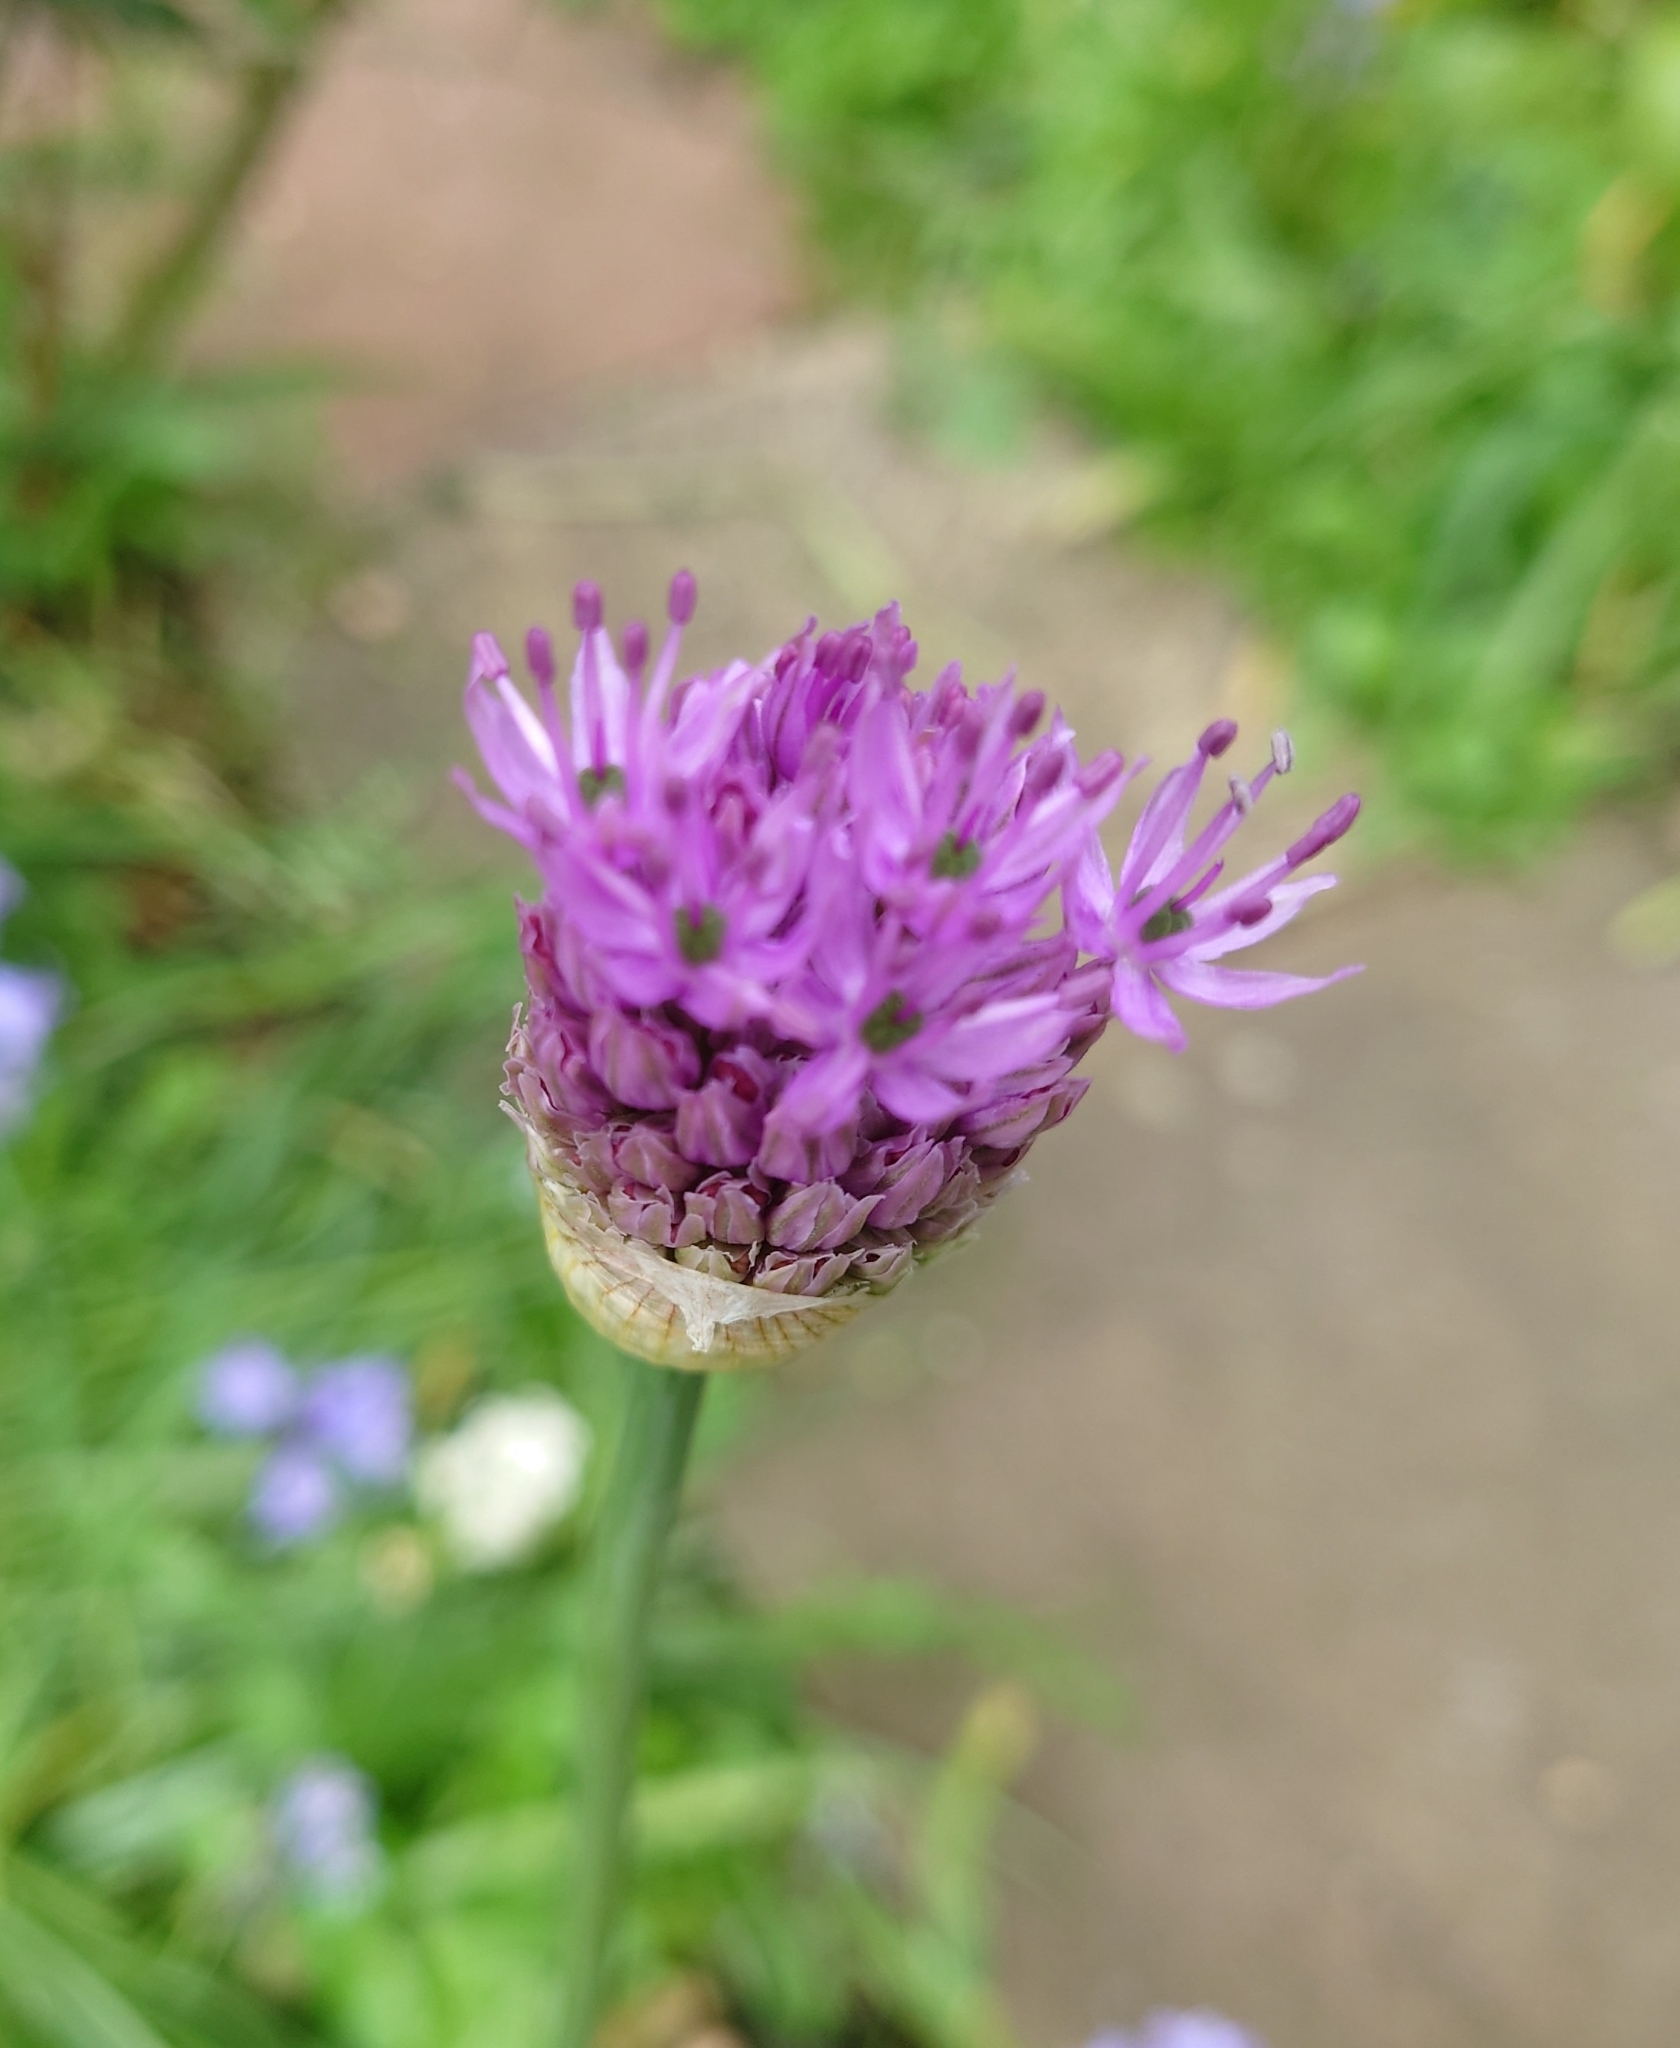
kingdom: Plantae
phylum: Tracheophyta
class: Liliopsida
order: Asparagales
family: Amaryllidaceae
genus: Allium
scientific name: Allium schoenoprasum
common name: Chives
